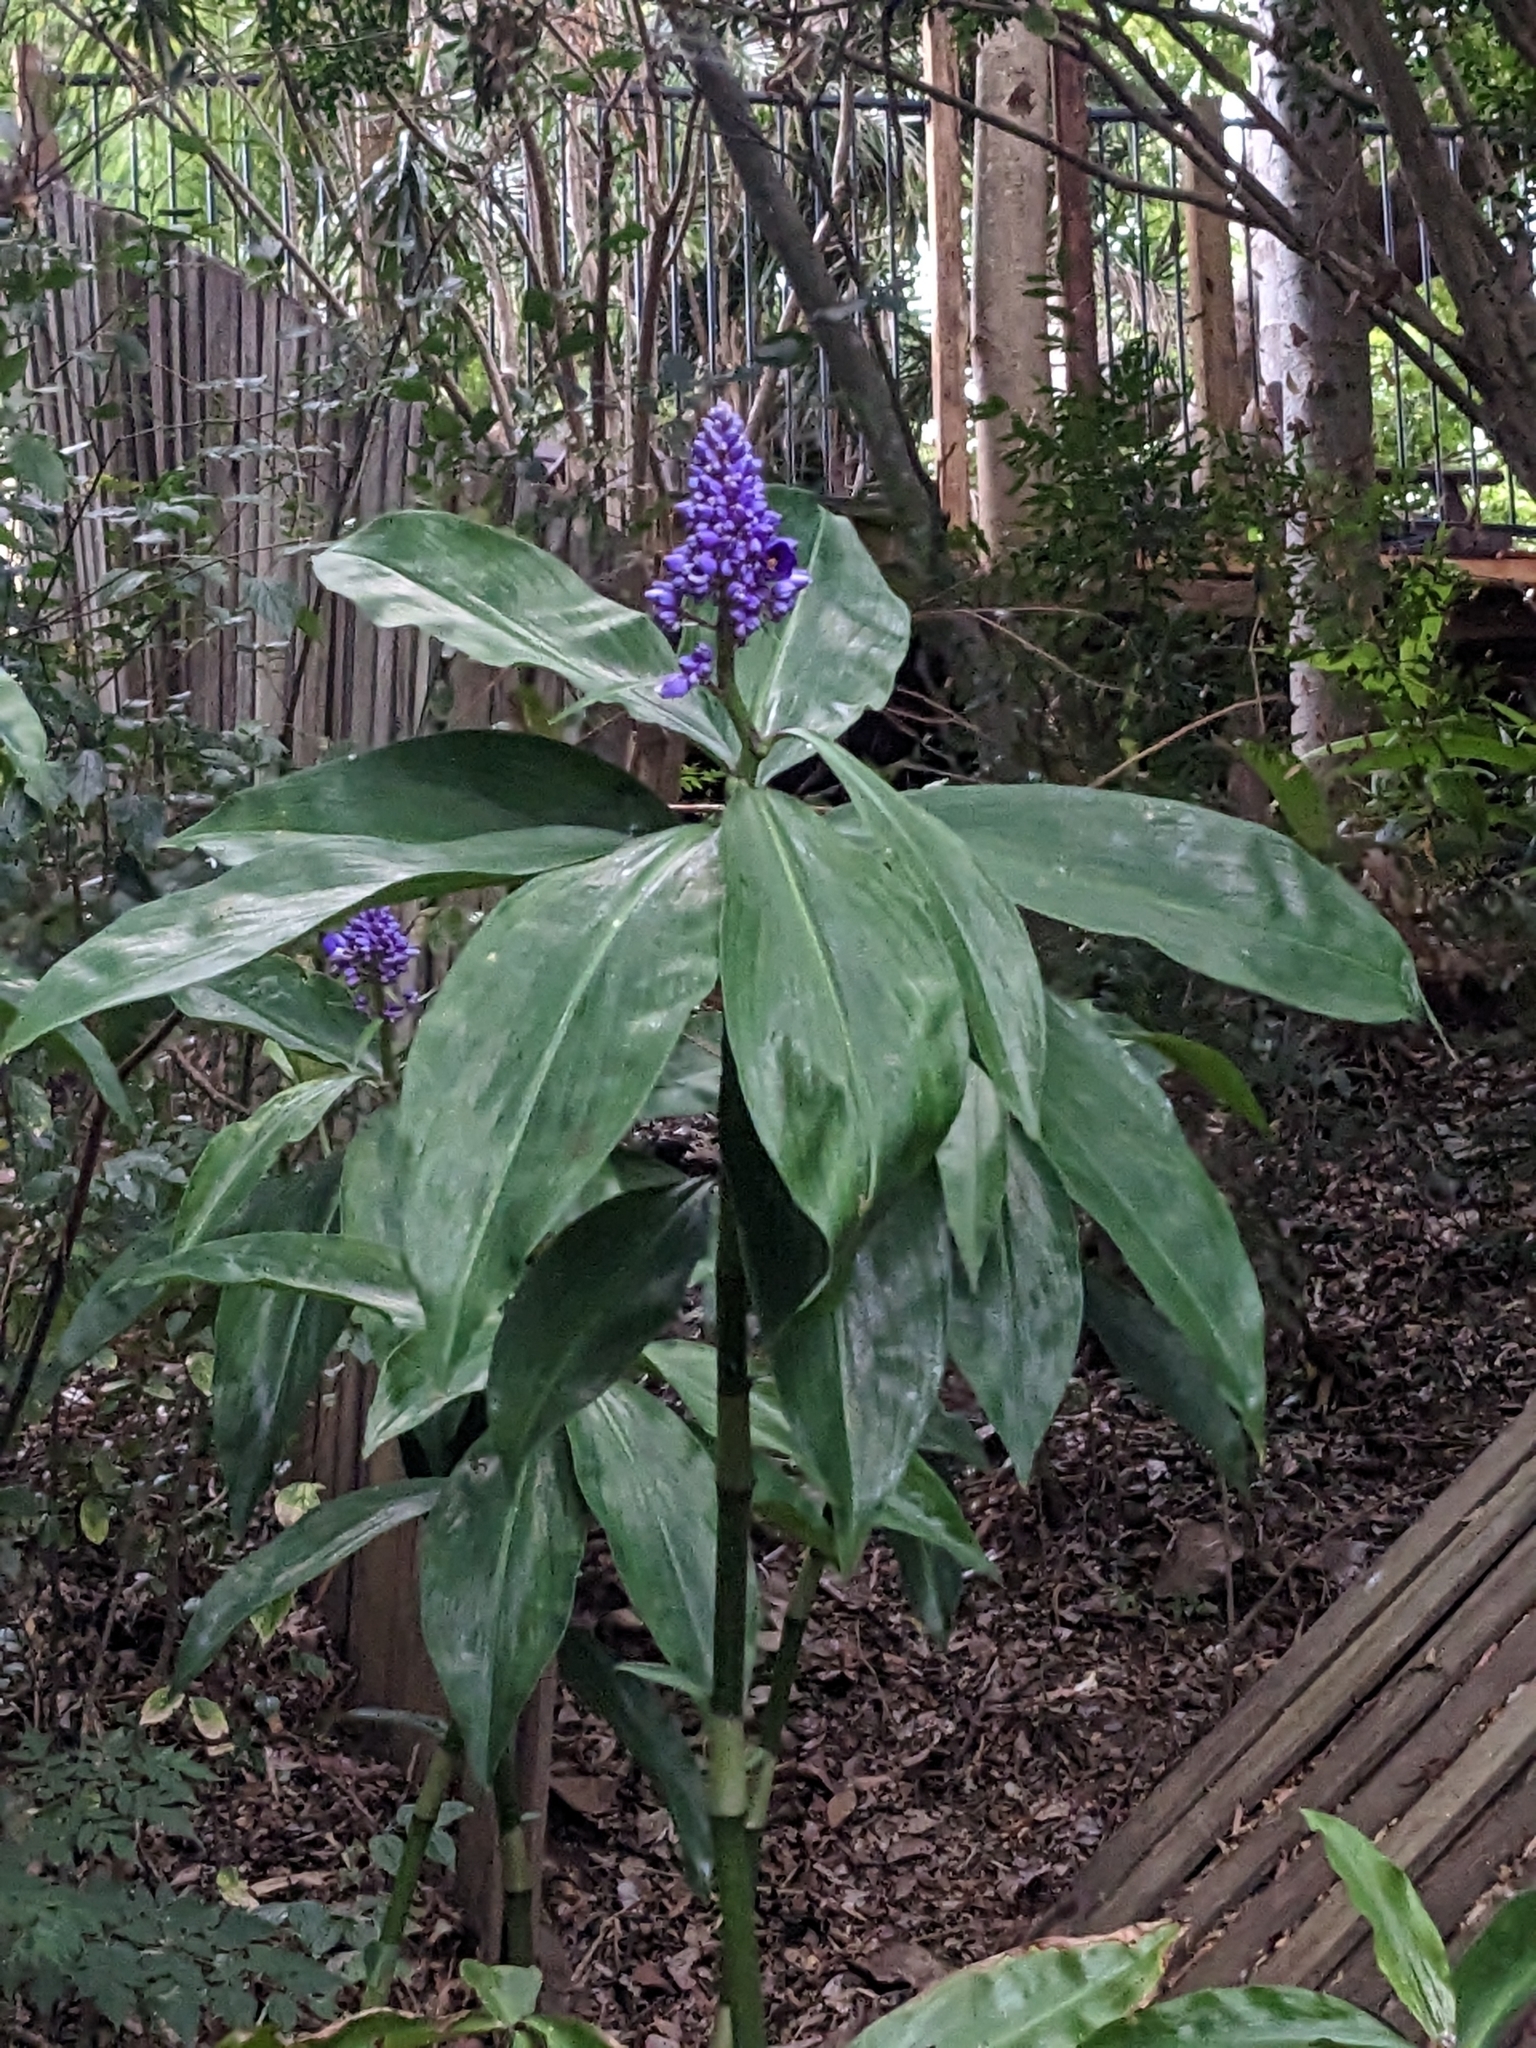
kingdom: Plantae
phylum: Tracheophyta
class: Liliopsida
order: Commelinales
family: Commelinaceae
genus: Dichorisandra
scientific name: Dichorisandra thyrsiflora
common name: Blue-ginger
